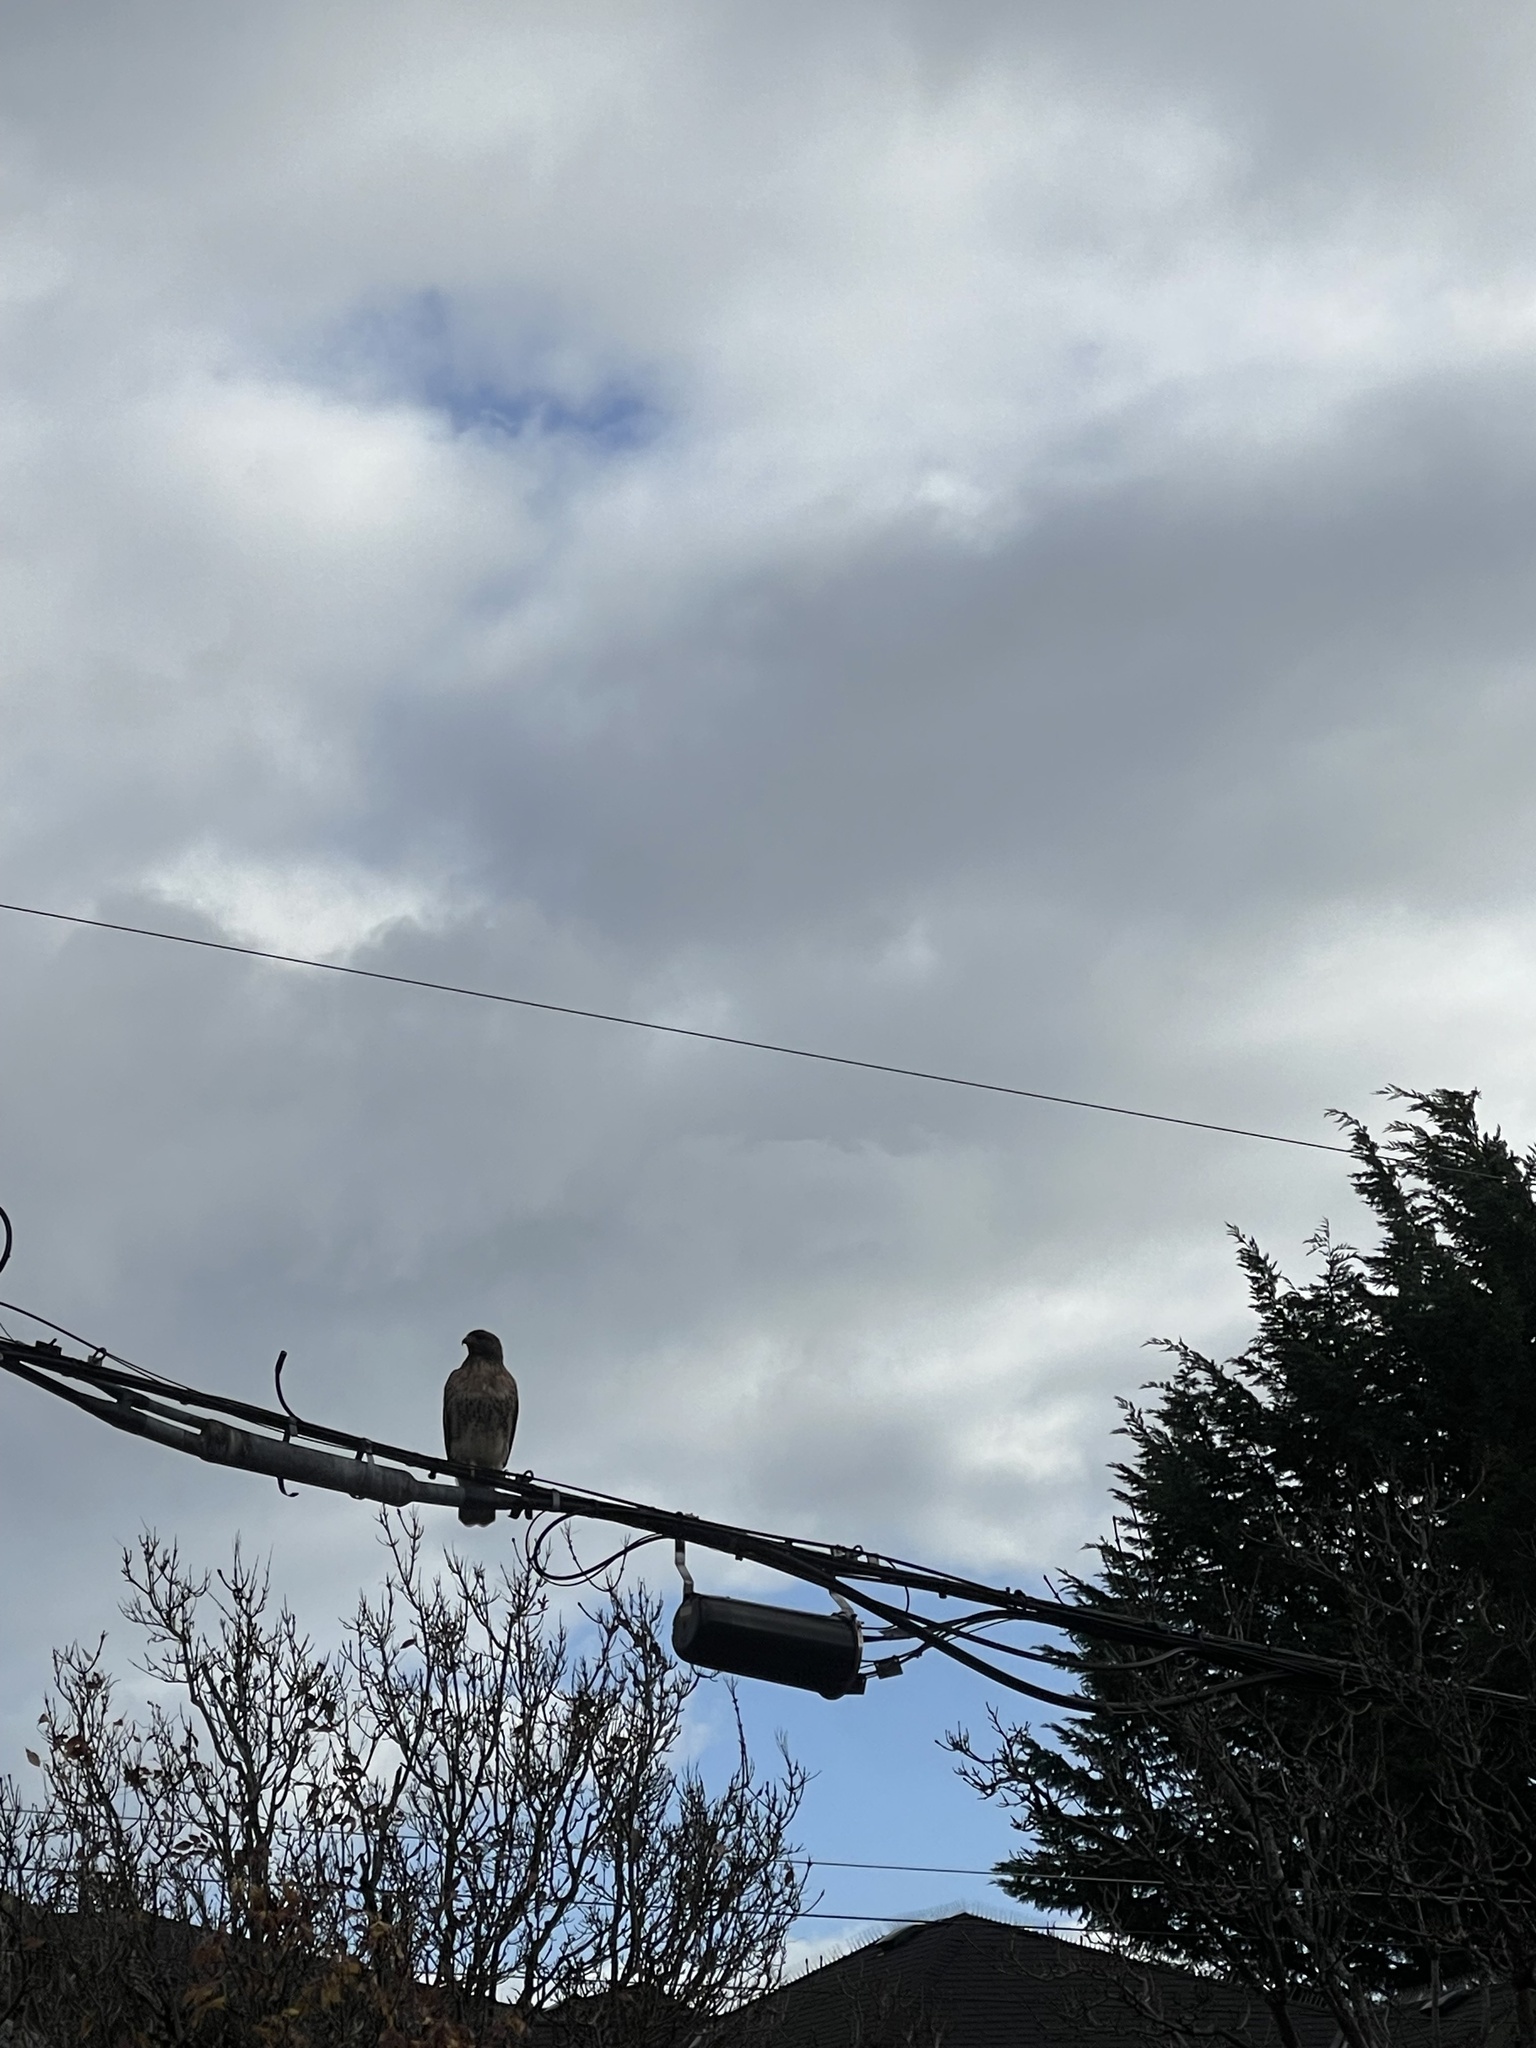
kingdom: Animalia
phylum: Chordata
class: Aves
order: Accipitriformes
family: Accipitridae
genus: Buteo
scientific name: Buteo jamaicensis
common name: Red-tailed hawk
